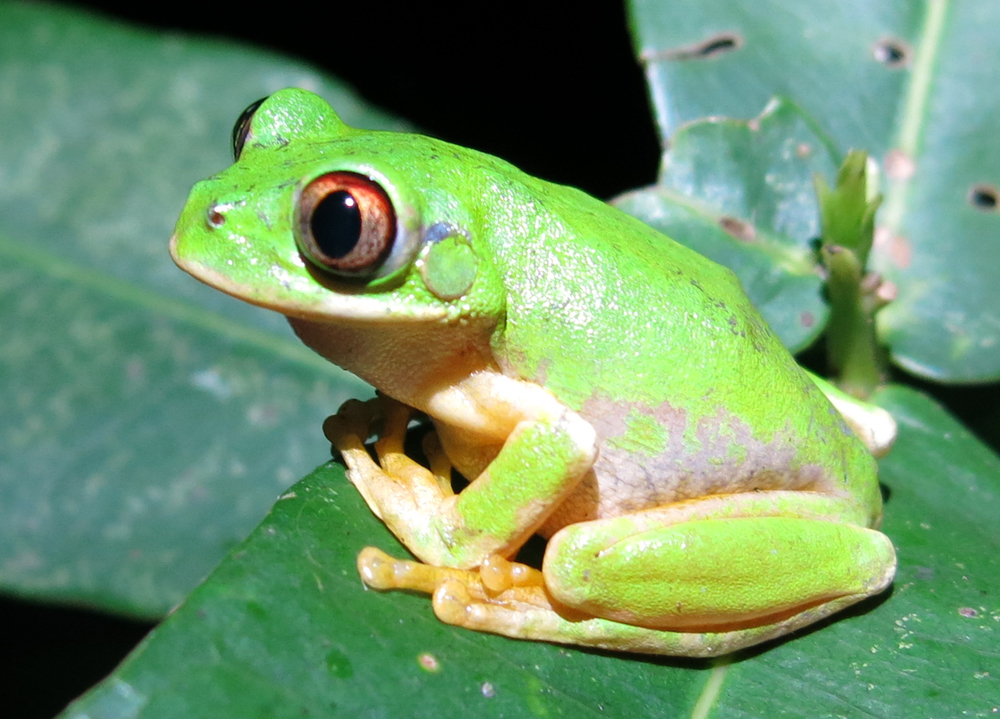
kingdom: Animalia
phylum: Chordata
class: Amphibia
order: Anura
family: Arthroleptidae
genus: Leptopelis
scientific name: Leptopelis natalensis
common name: Natal tree frog
